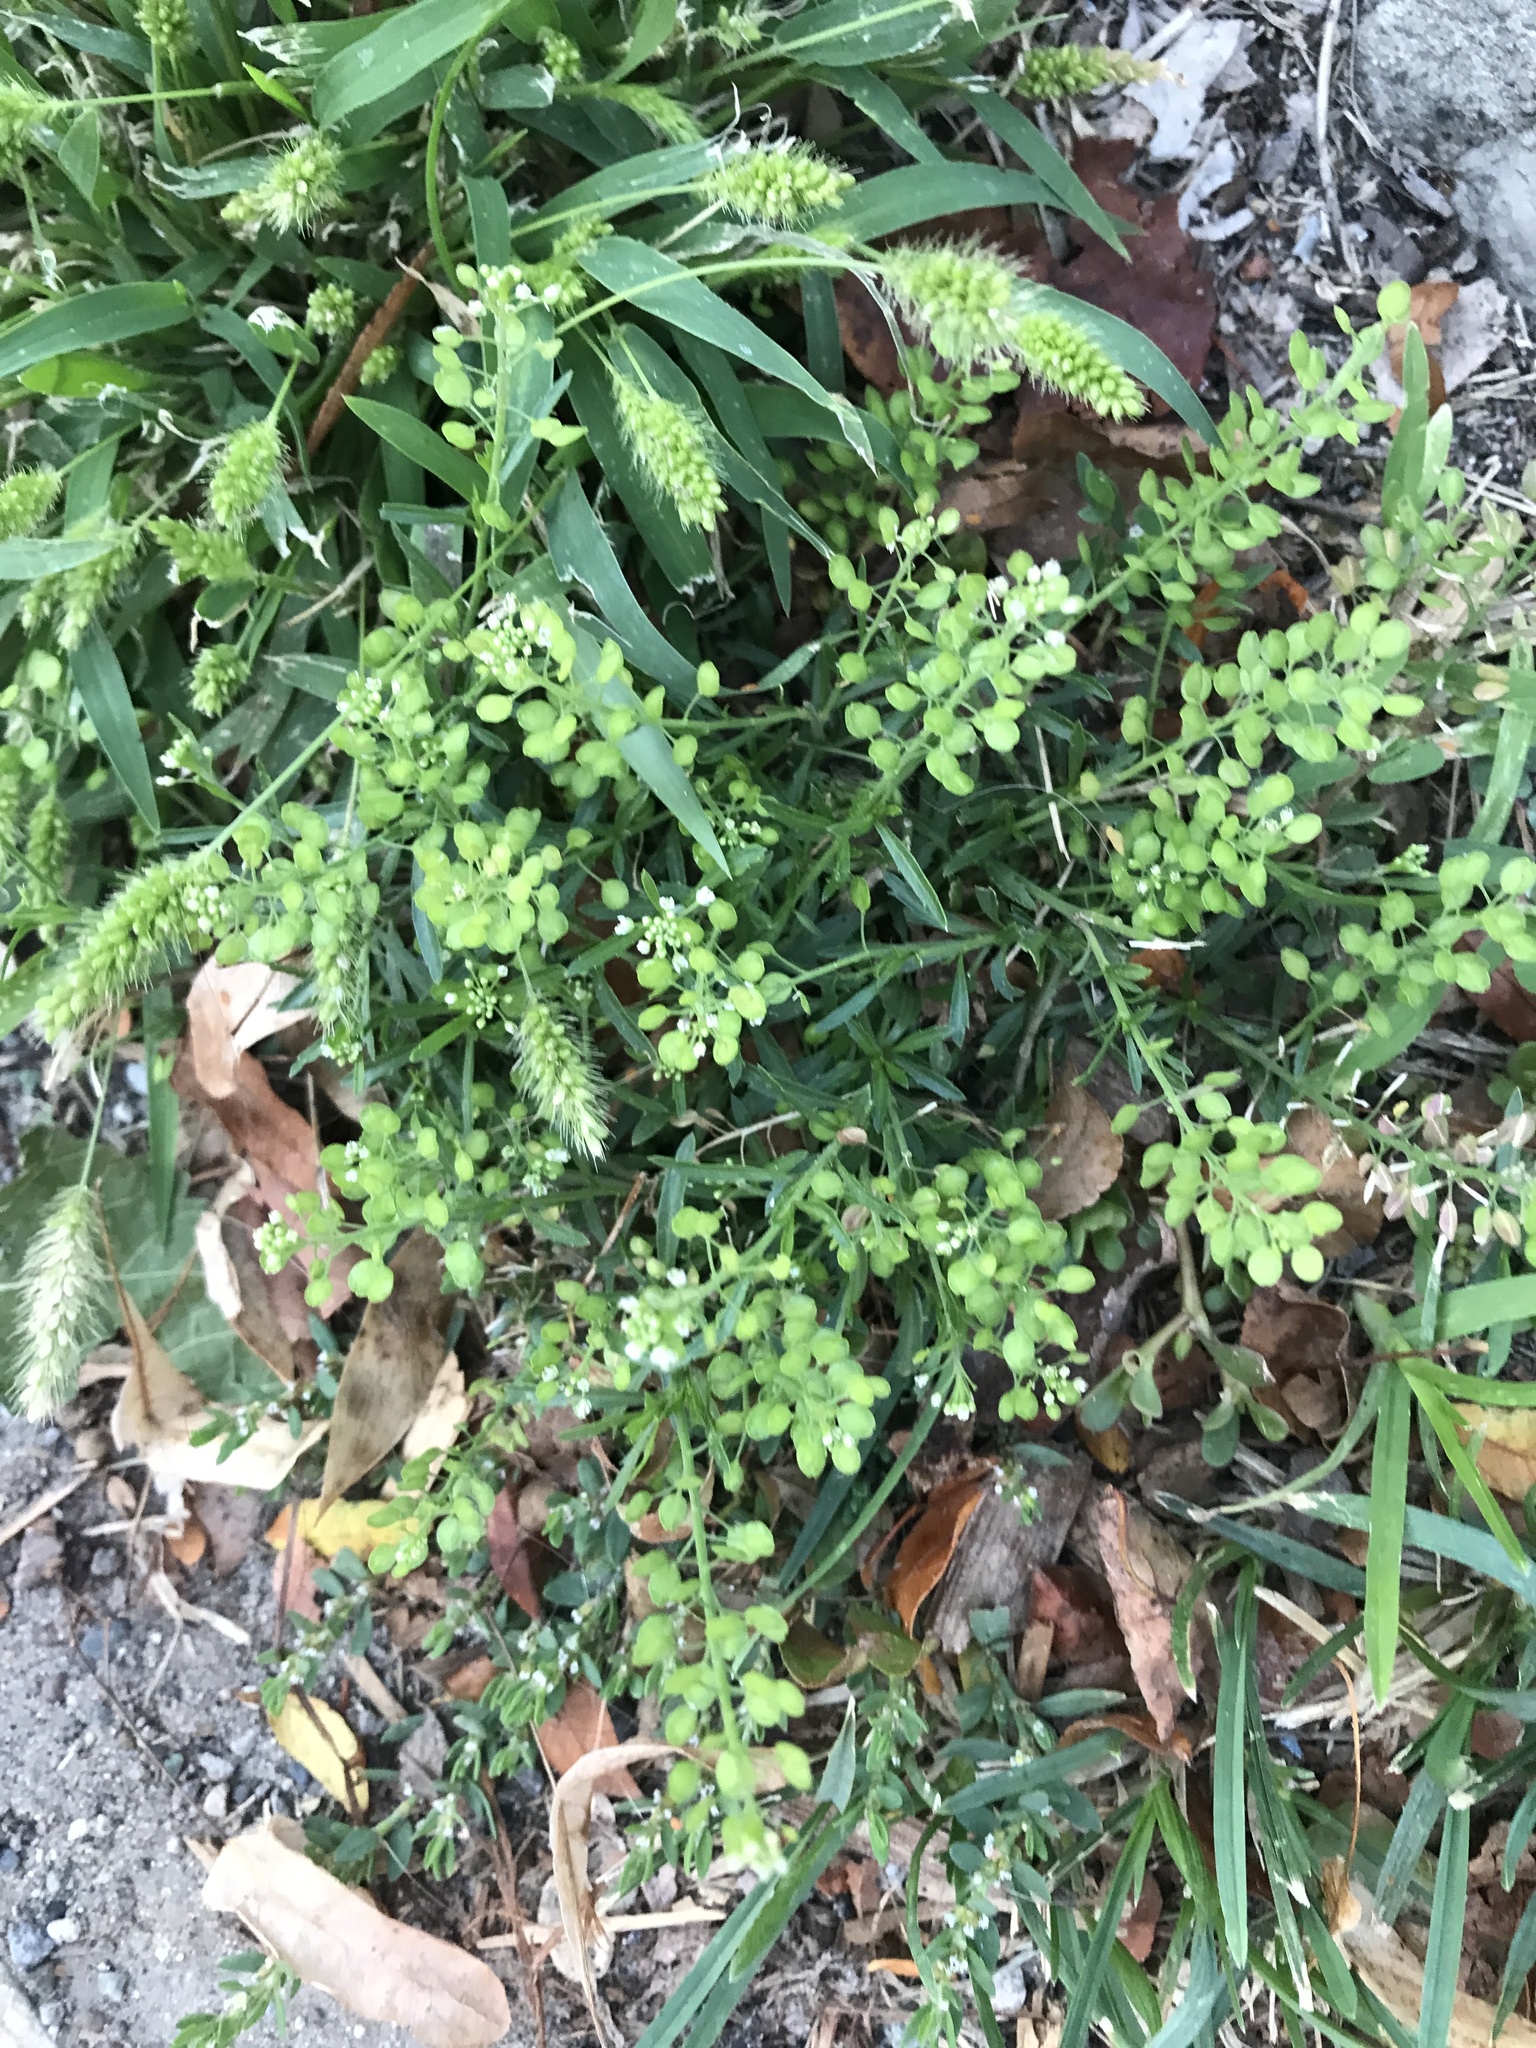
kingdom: Plantae
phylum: Tracheophyta
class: Magnoliopsida
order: Brassicales
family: Brassicaceae
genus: Lepidium
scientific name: Lepidium virginicum
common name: Least pepperwort
